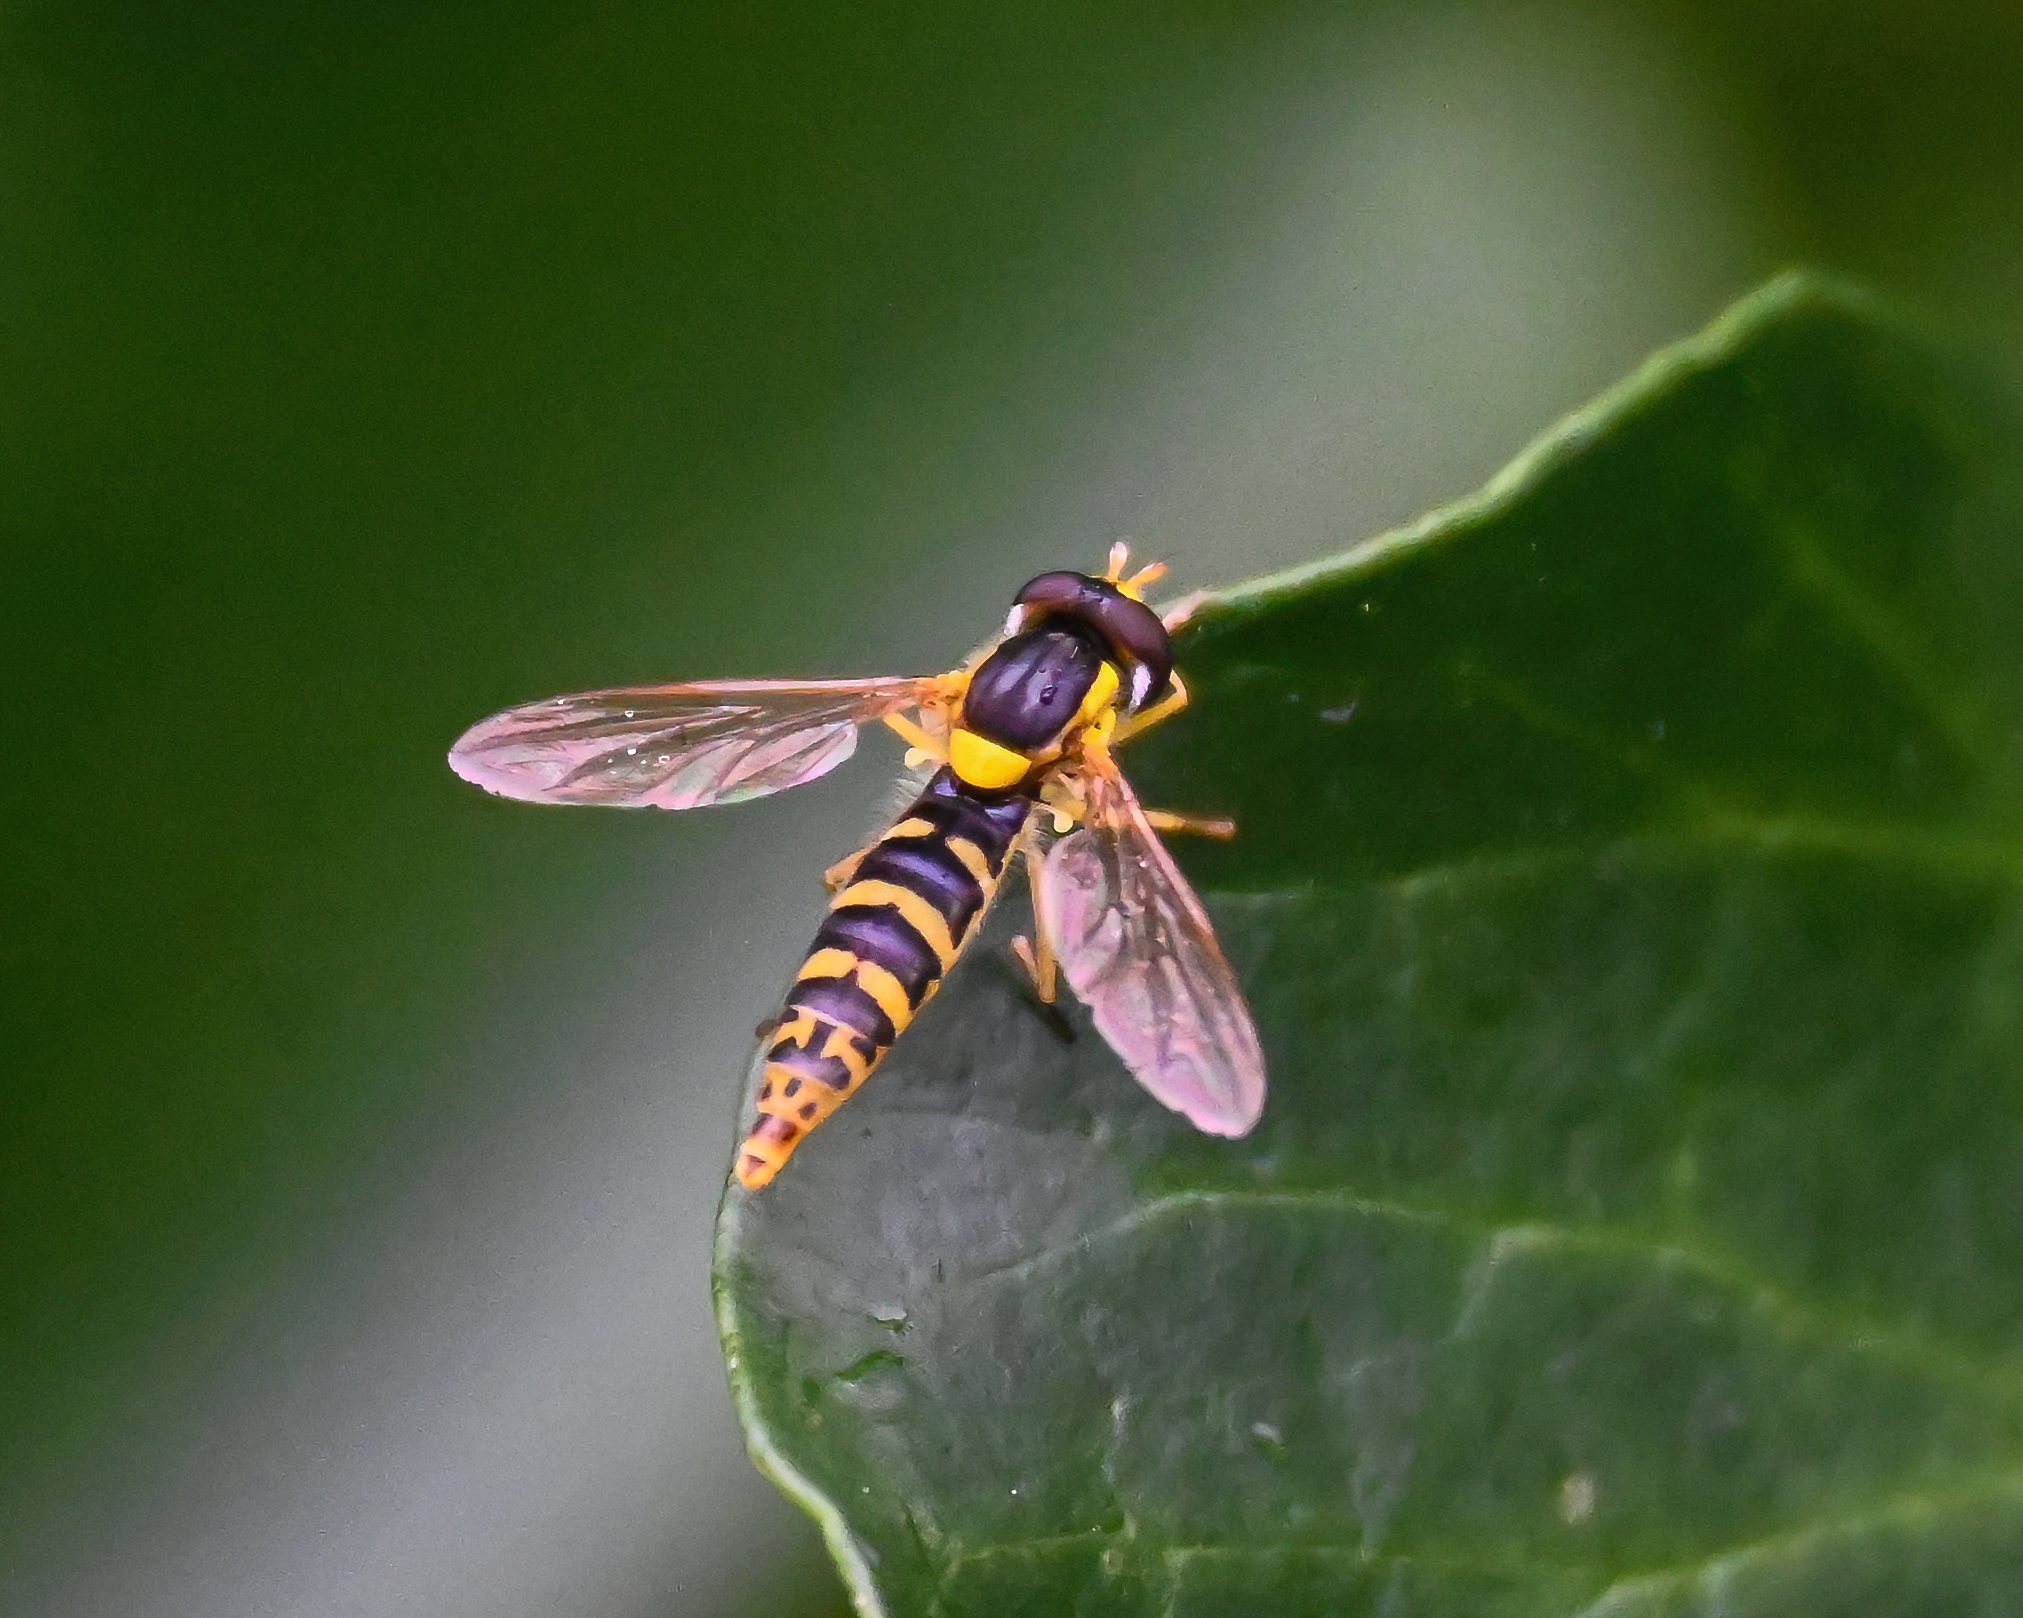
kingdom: Animalia
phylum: Arthropoda
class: Insecta
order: Diptera
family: Syrphidae
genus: Sphaerophoria
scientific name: Sphaerophoria
